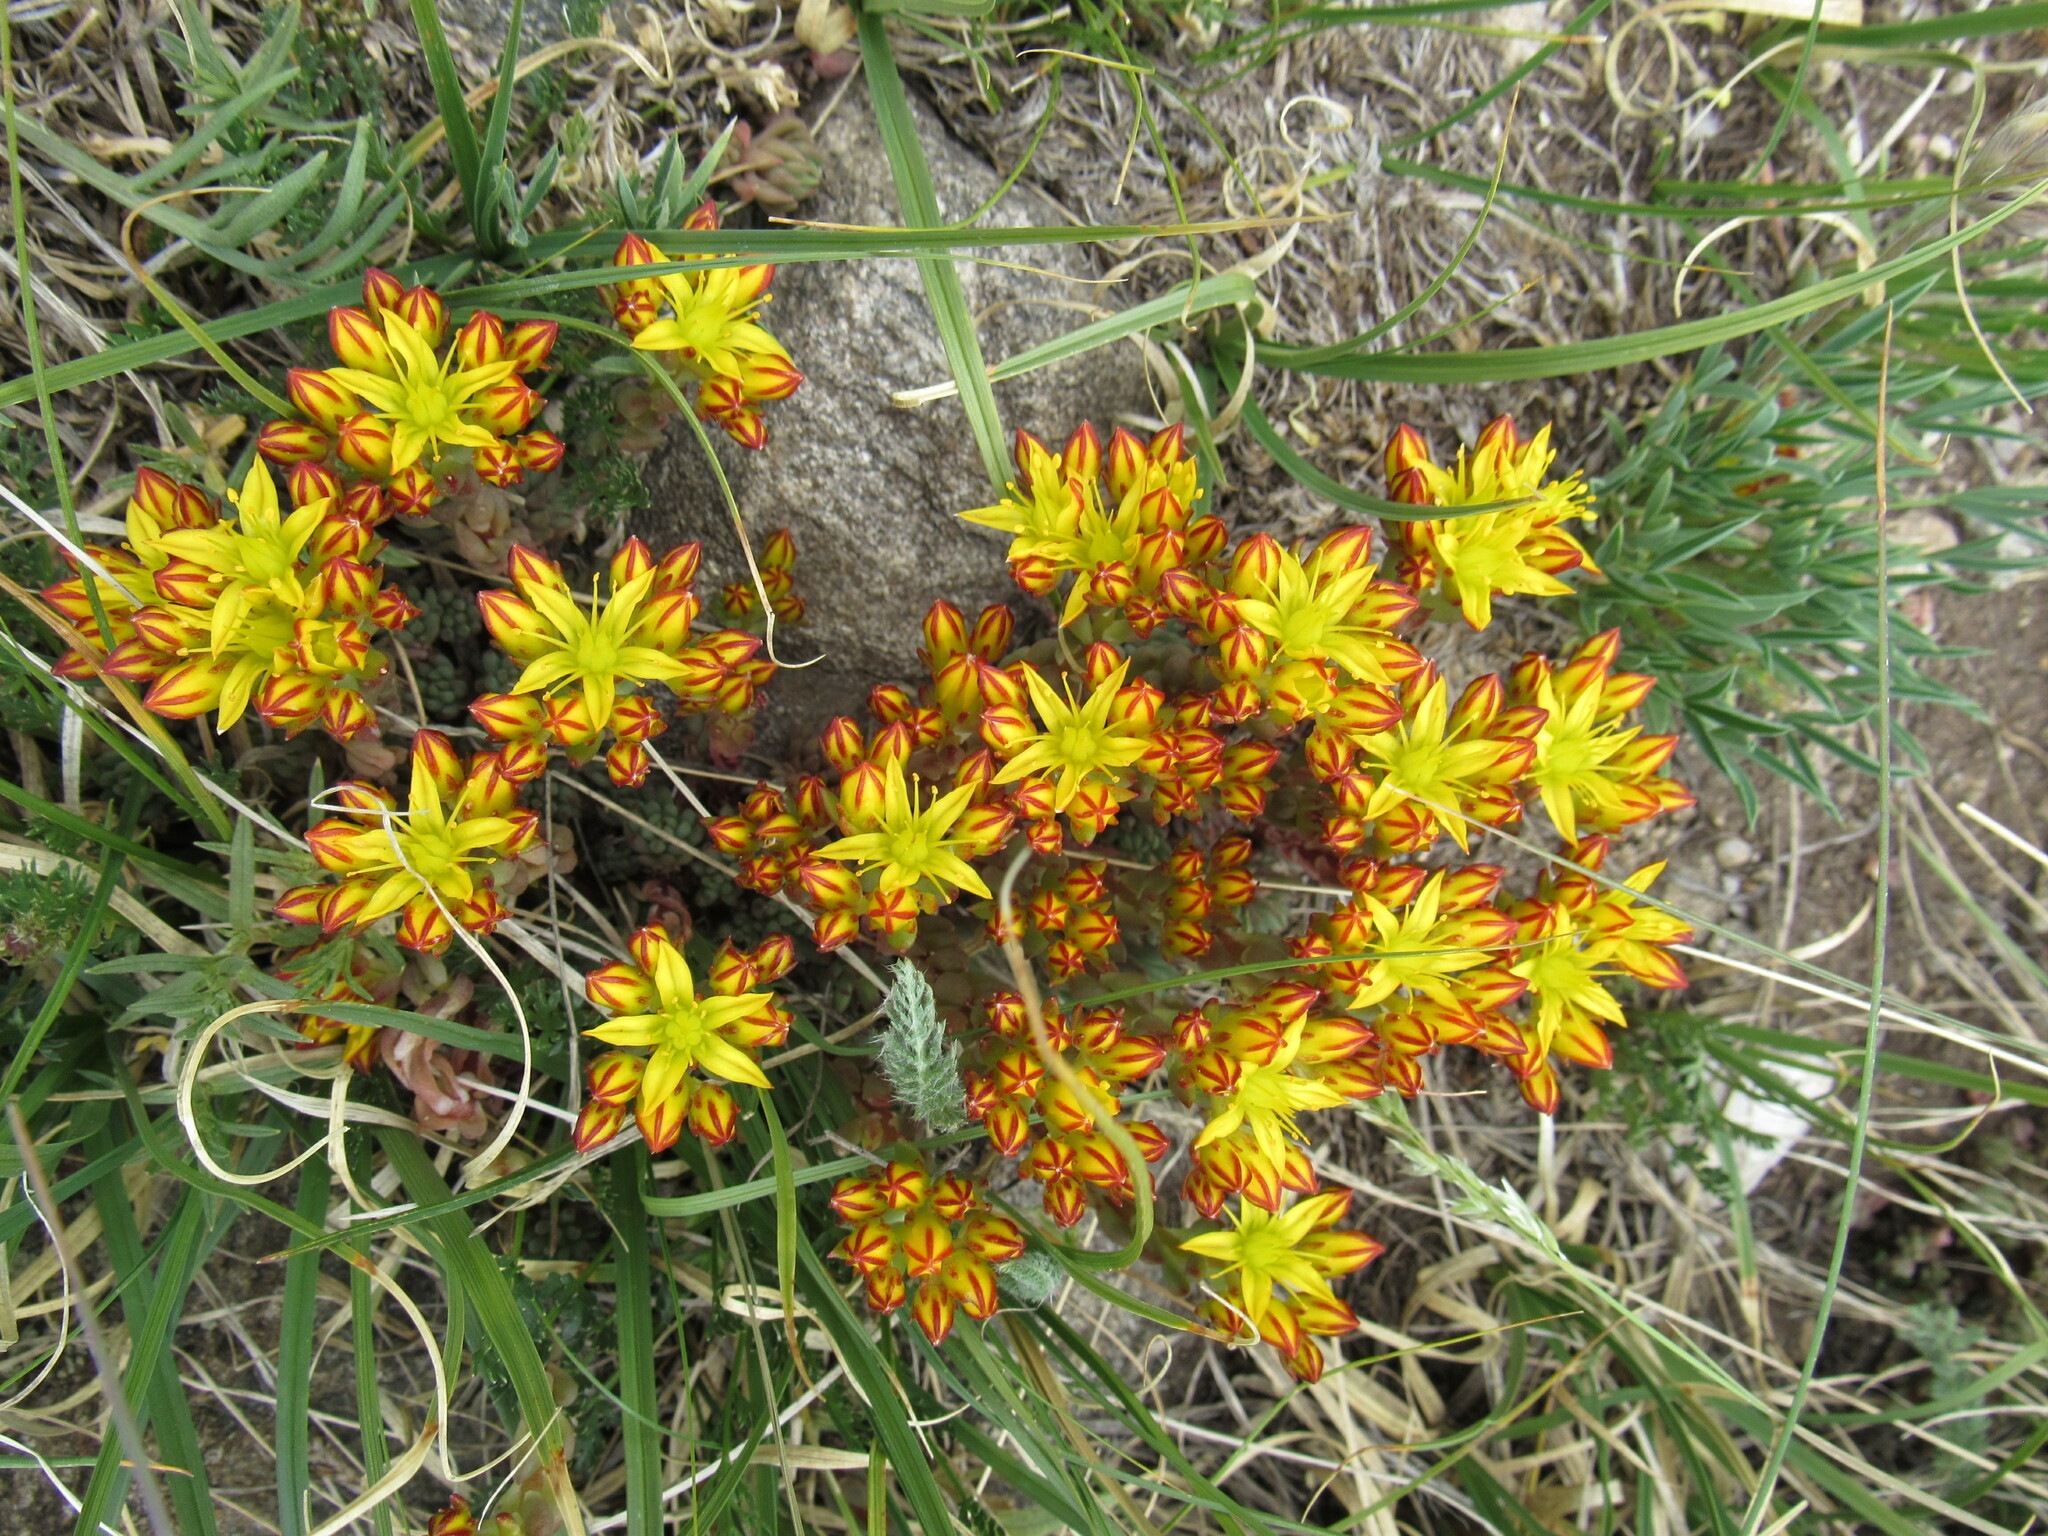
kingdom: Plantae
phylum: Tracheophyta
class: Magnoliopsida
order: Saxifragales
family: Crassulaceae
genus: Sedum
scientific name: Sedum lanceolatum
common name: Common stonecrop
